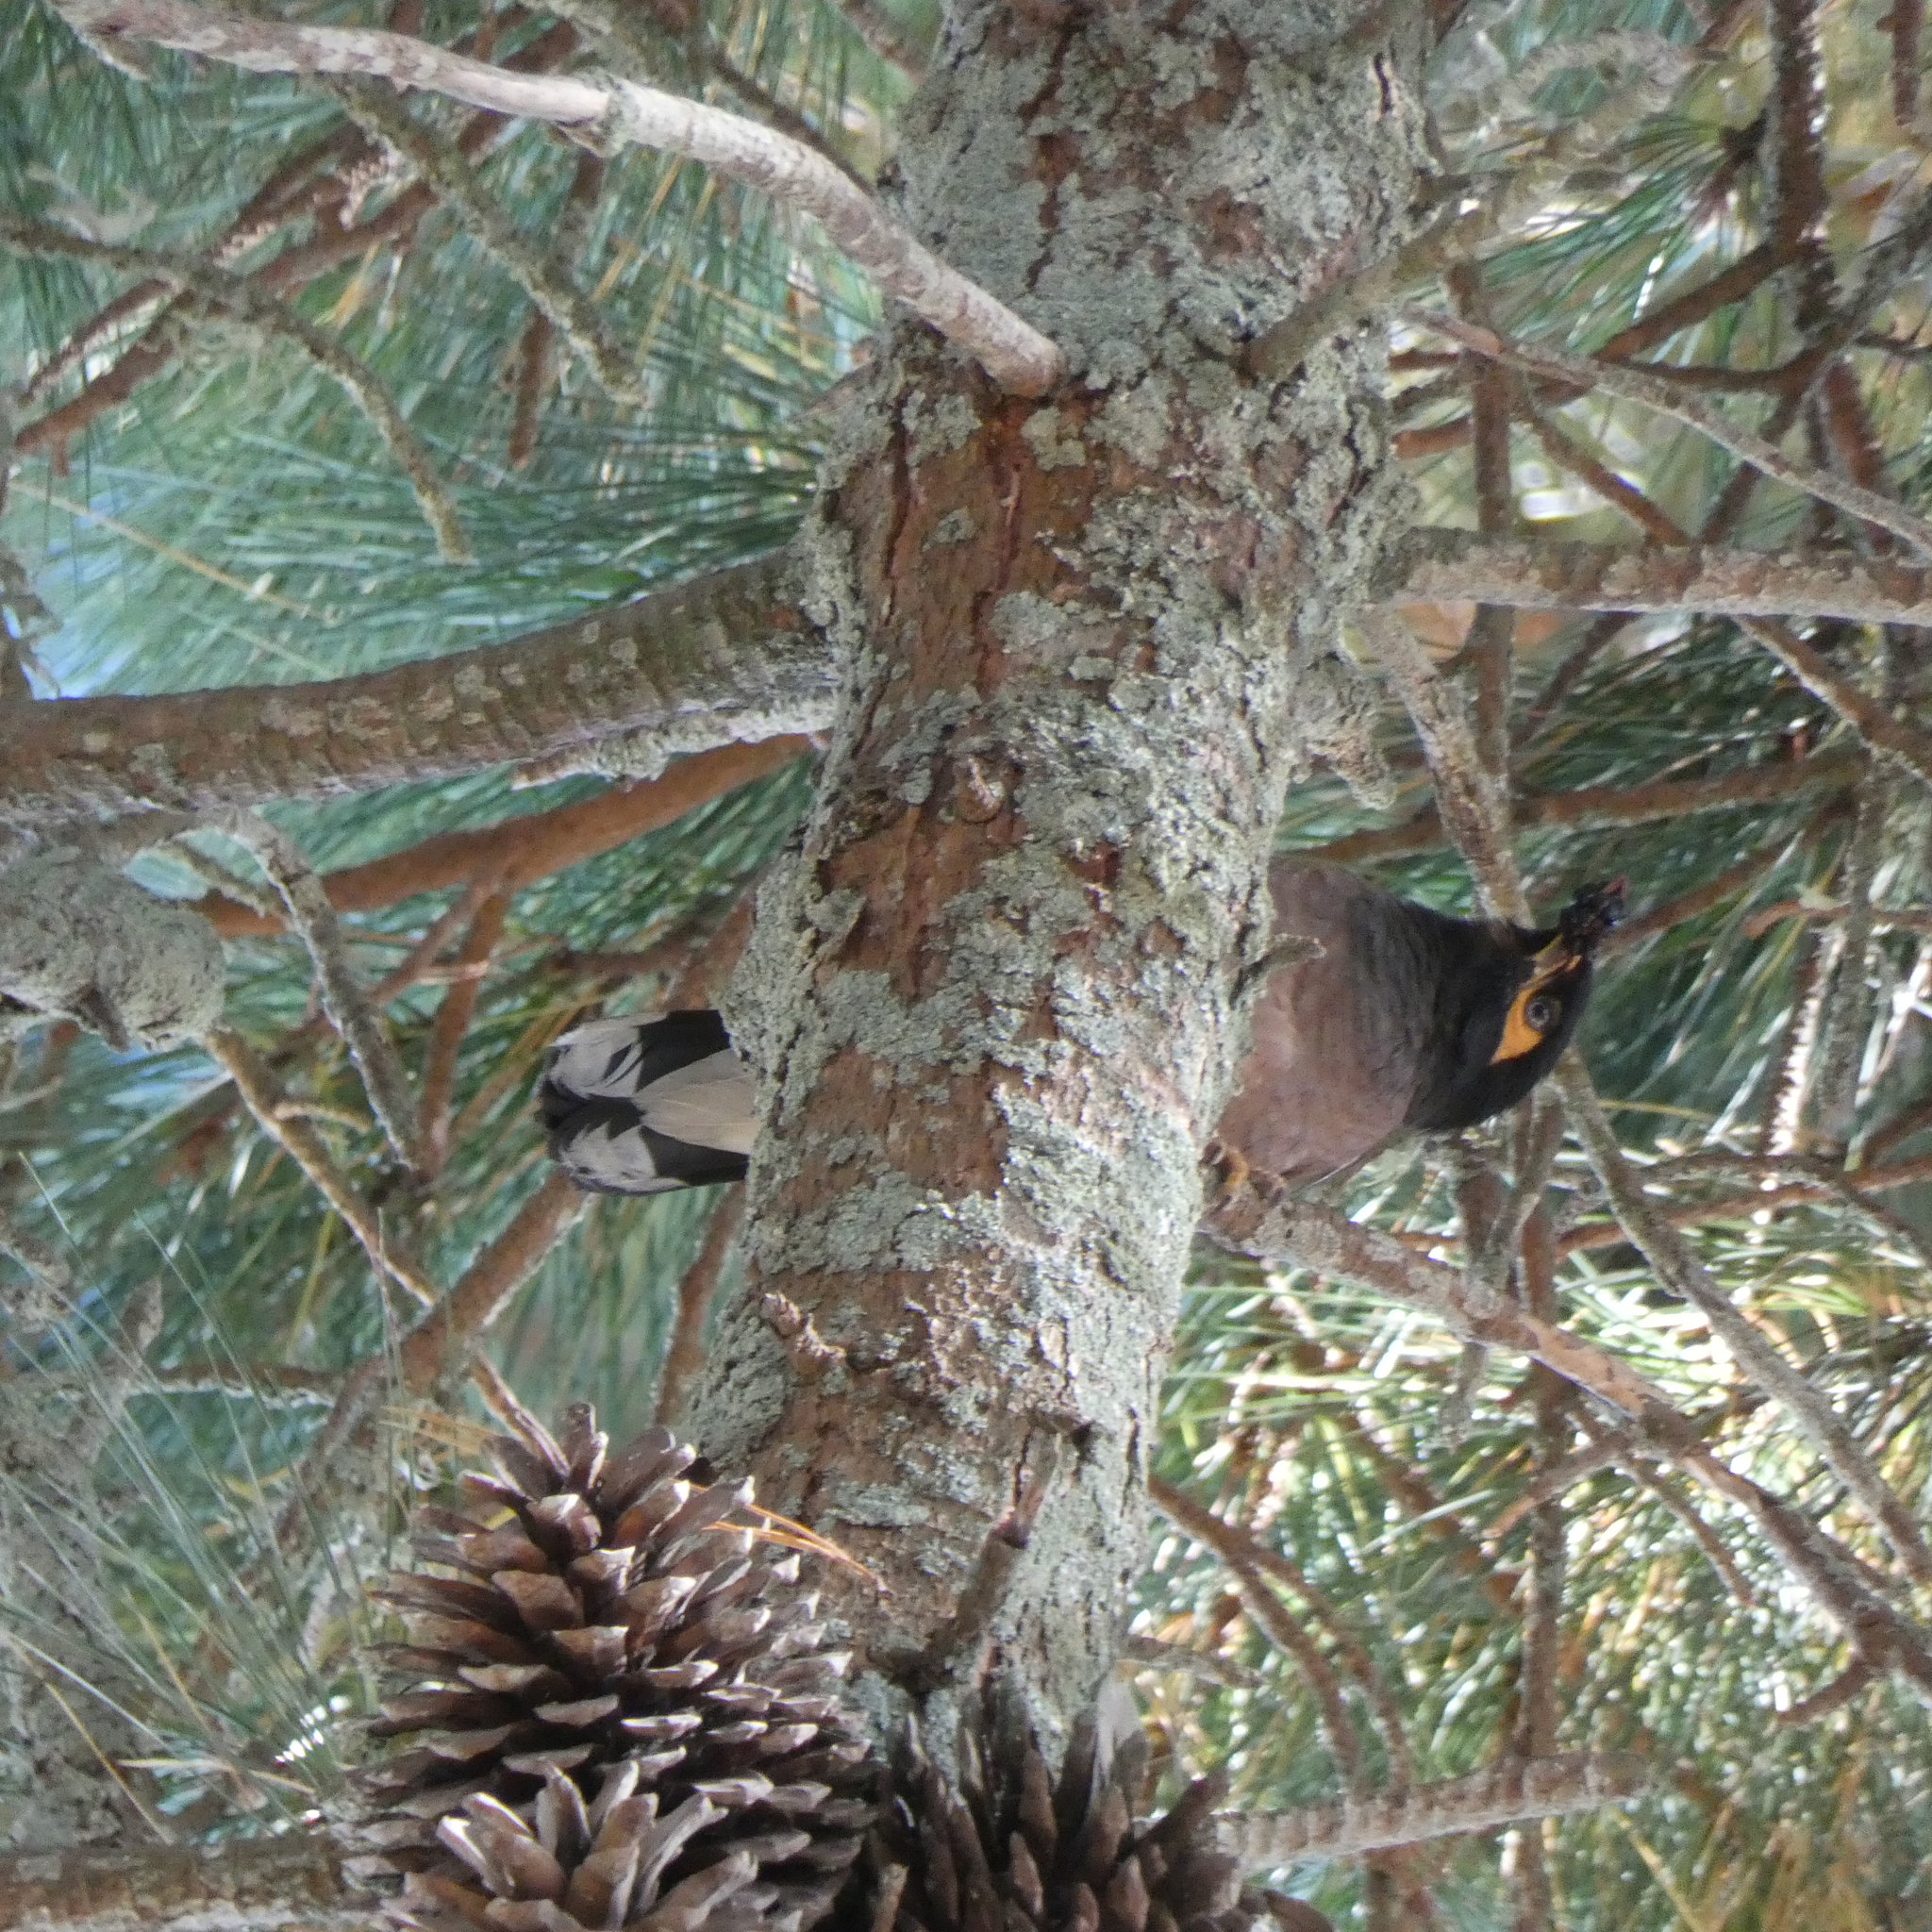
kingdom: Animalia
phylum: Chordata
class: Aves
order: Passeriformes
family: Sturnidae
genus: Acridotheres
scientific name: Acridotheres tristis
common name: Common myna
